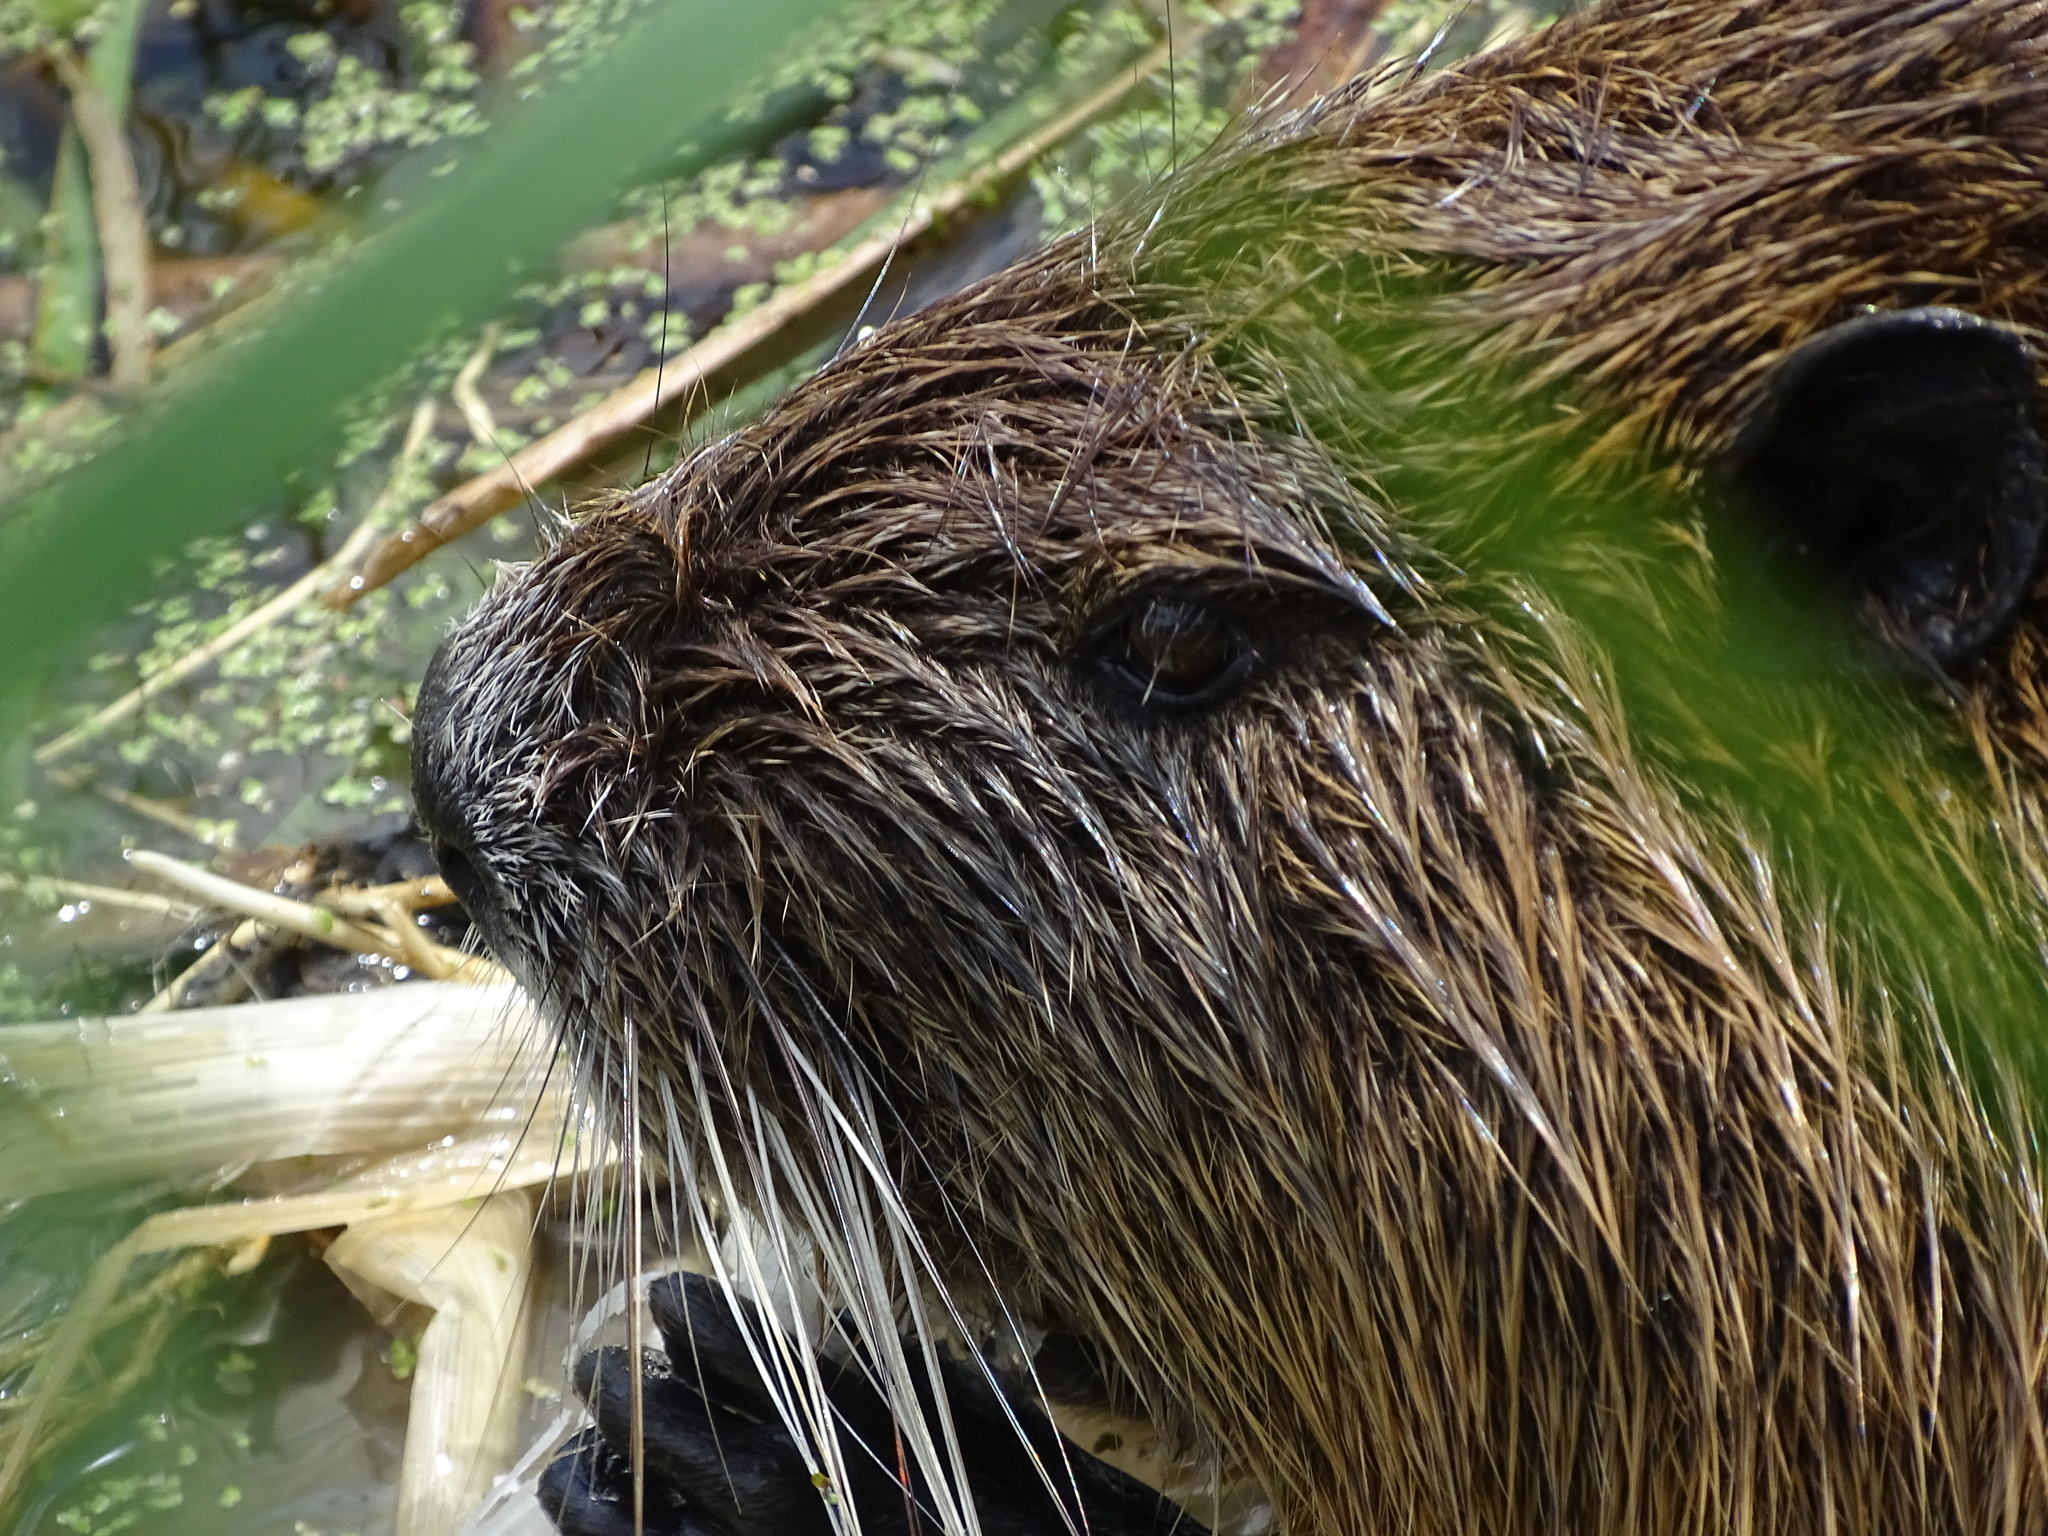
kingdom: Animalia
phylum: Chordata
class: Mammalia
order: Rodentia
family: Myocastoridae
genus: Myocastor
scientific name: Myocastor coypus
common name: Coypu
